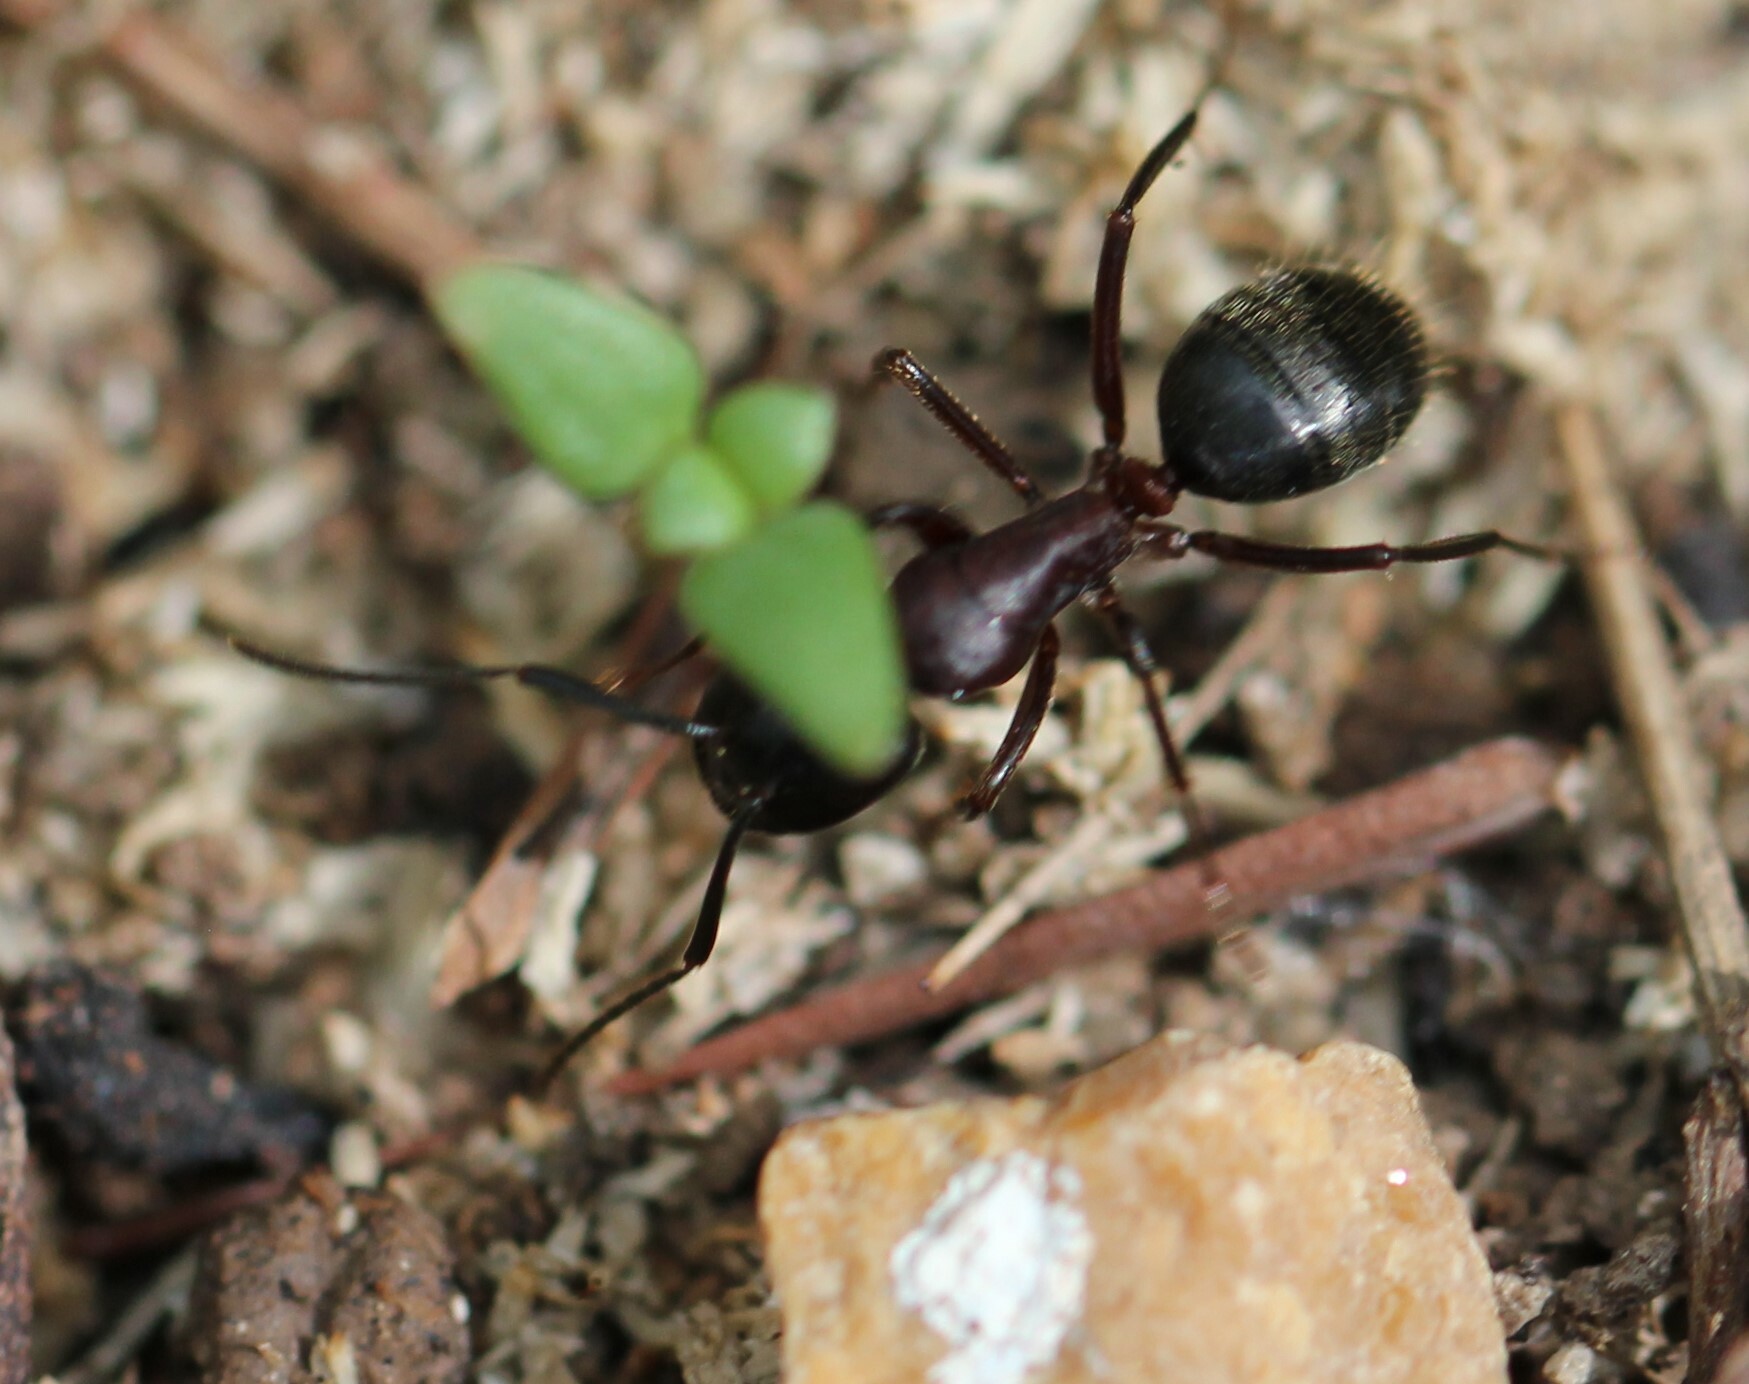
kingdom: Animalia
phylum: Arthropoda
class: Insecta
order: Hymenoptera
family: Formicidae
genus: Camponotus
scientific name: Camponotus reichardti
